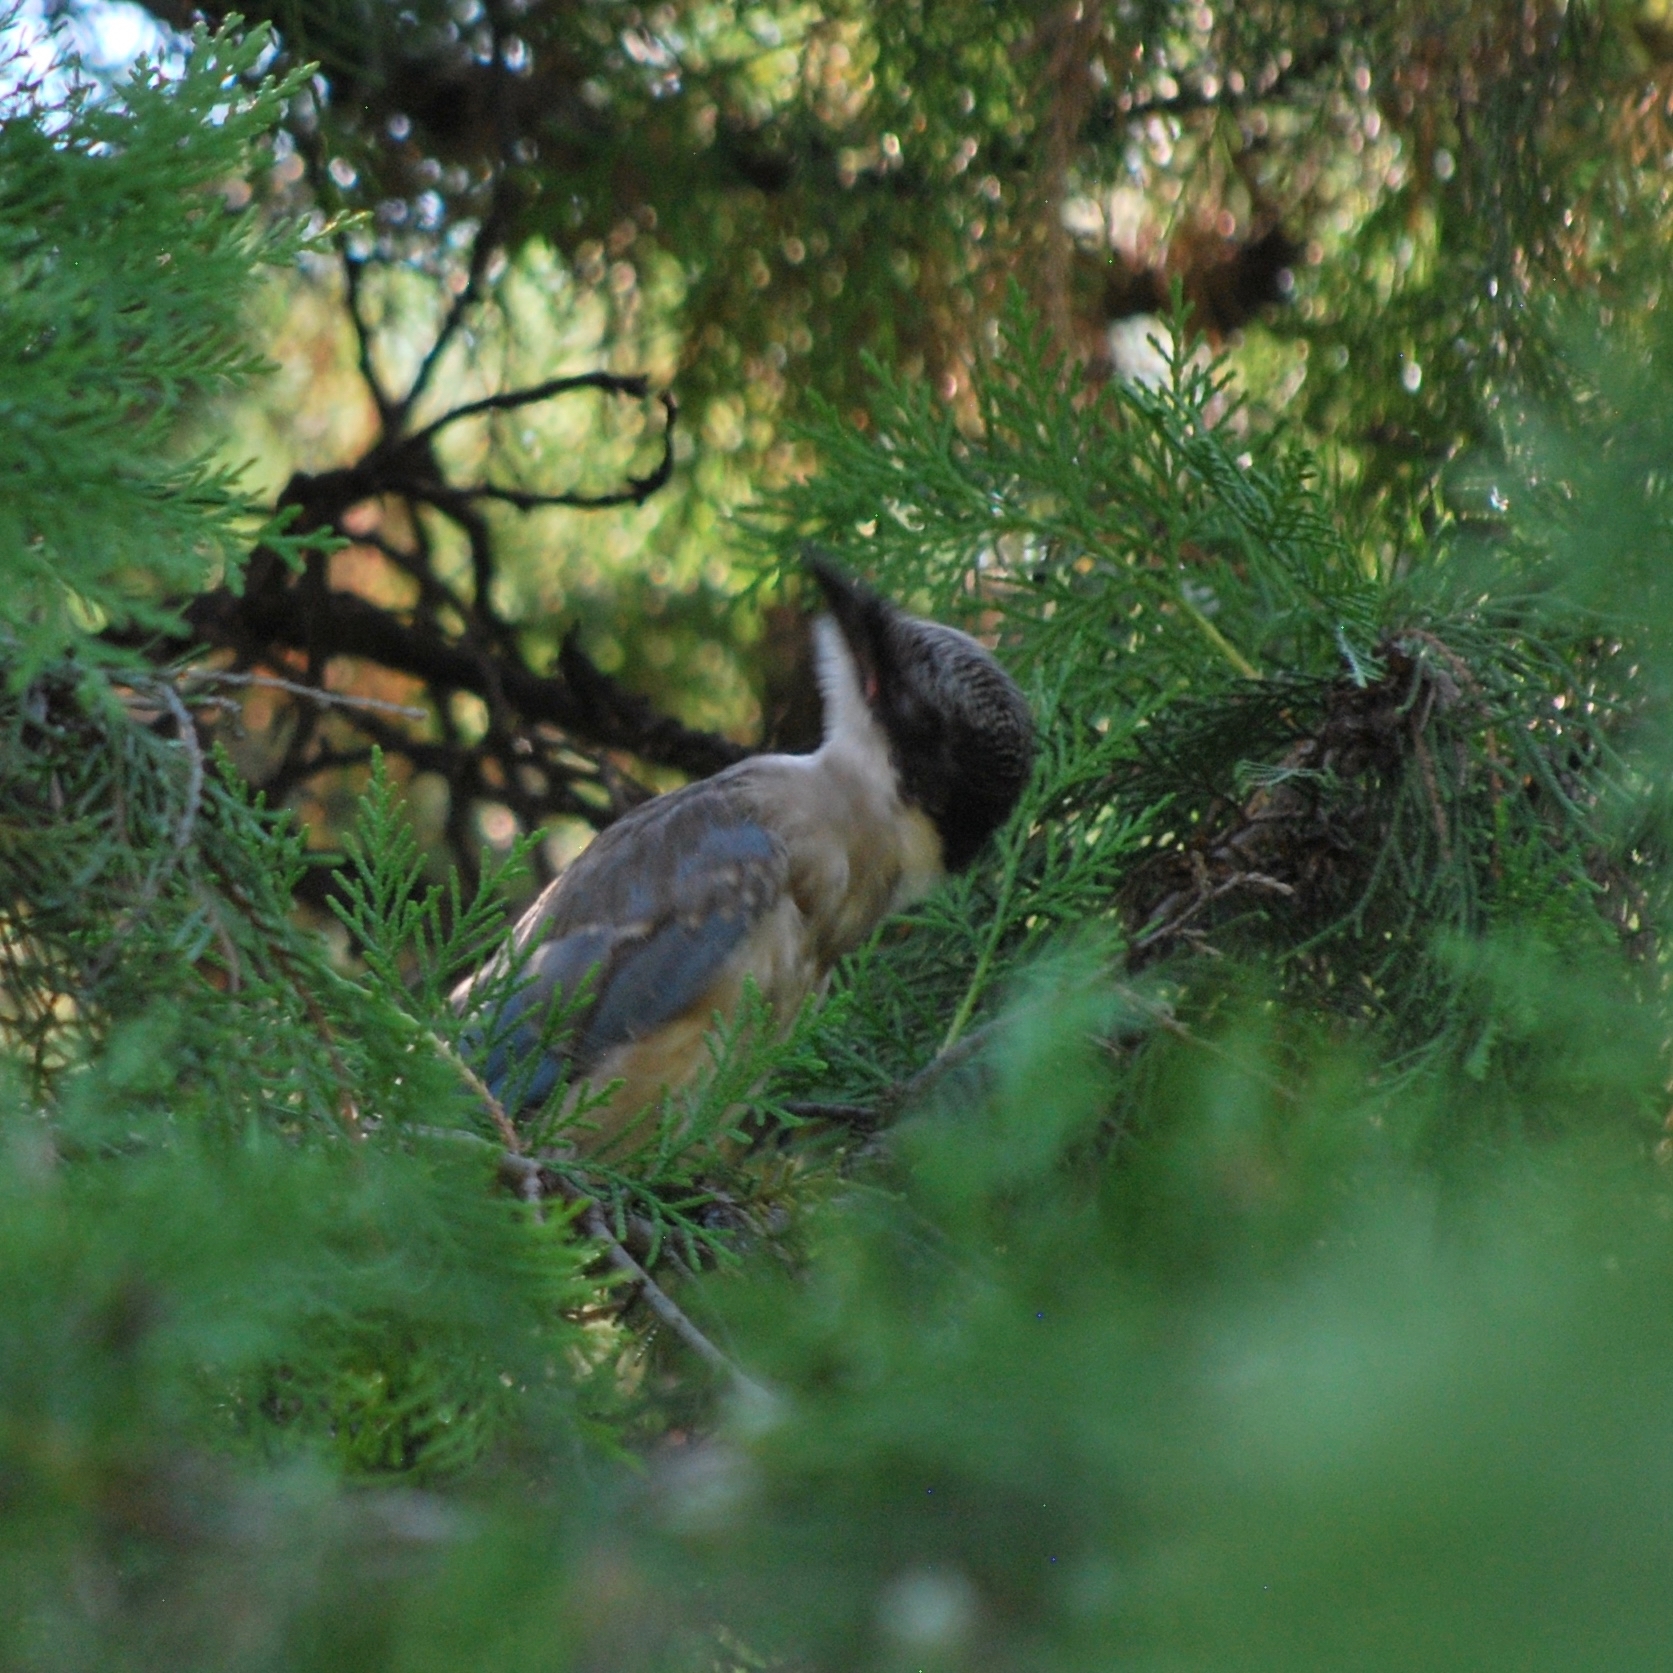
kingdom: Animalia
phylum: Chordata
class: Aves
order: Passeriformes
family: Corvidae
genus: Cyanopica
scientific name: Cyanopica cyanus
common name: Azure-winged magpie
